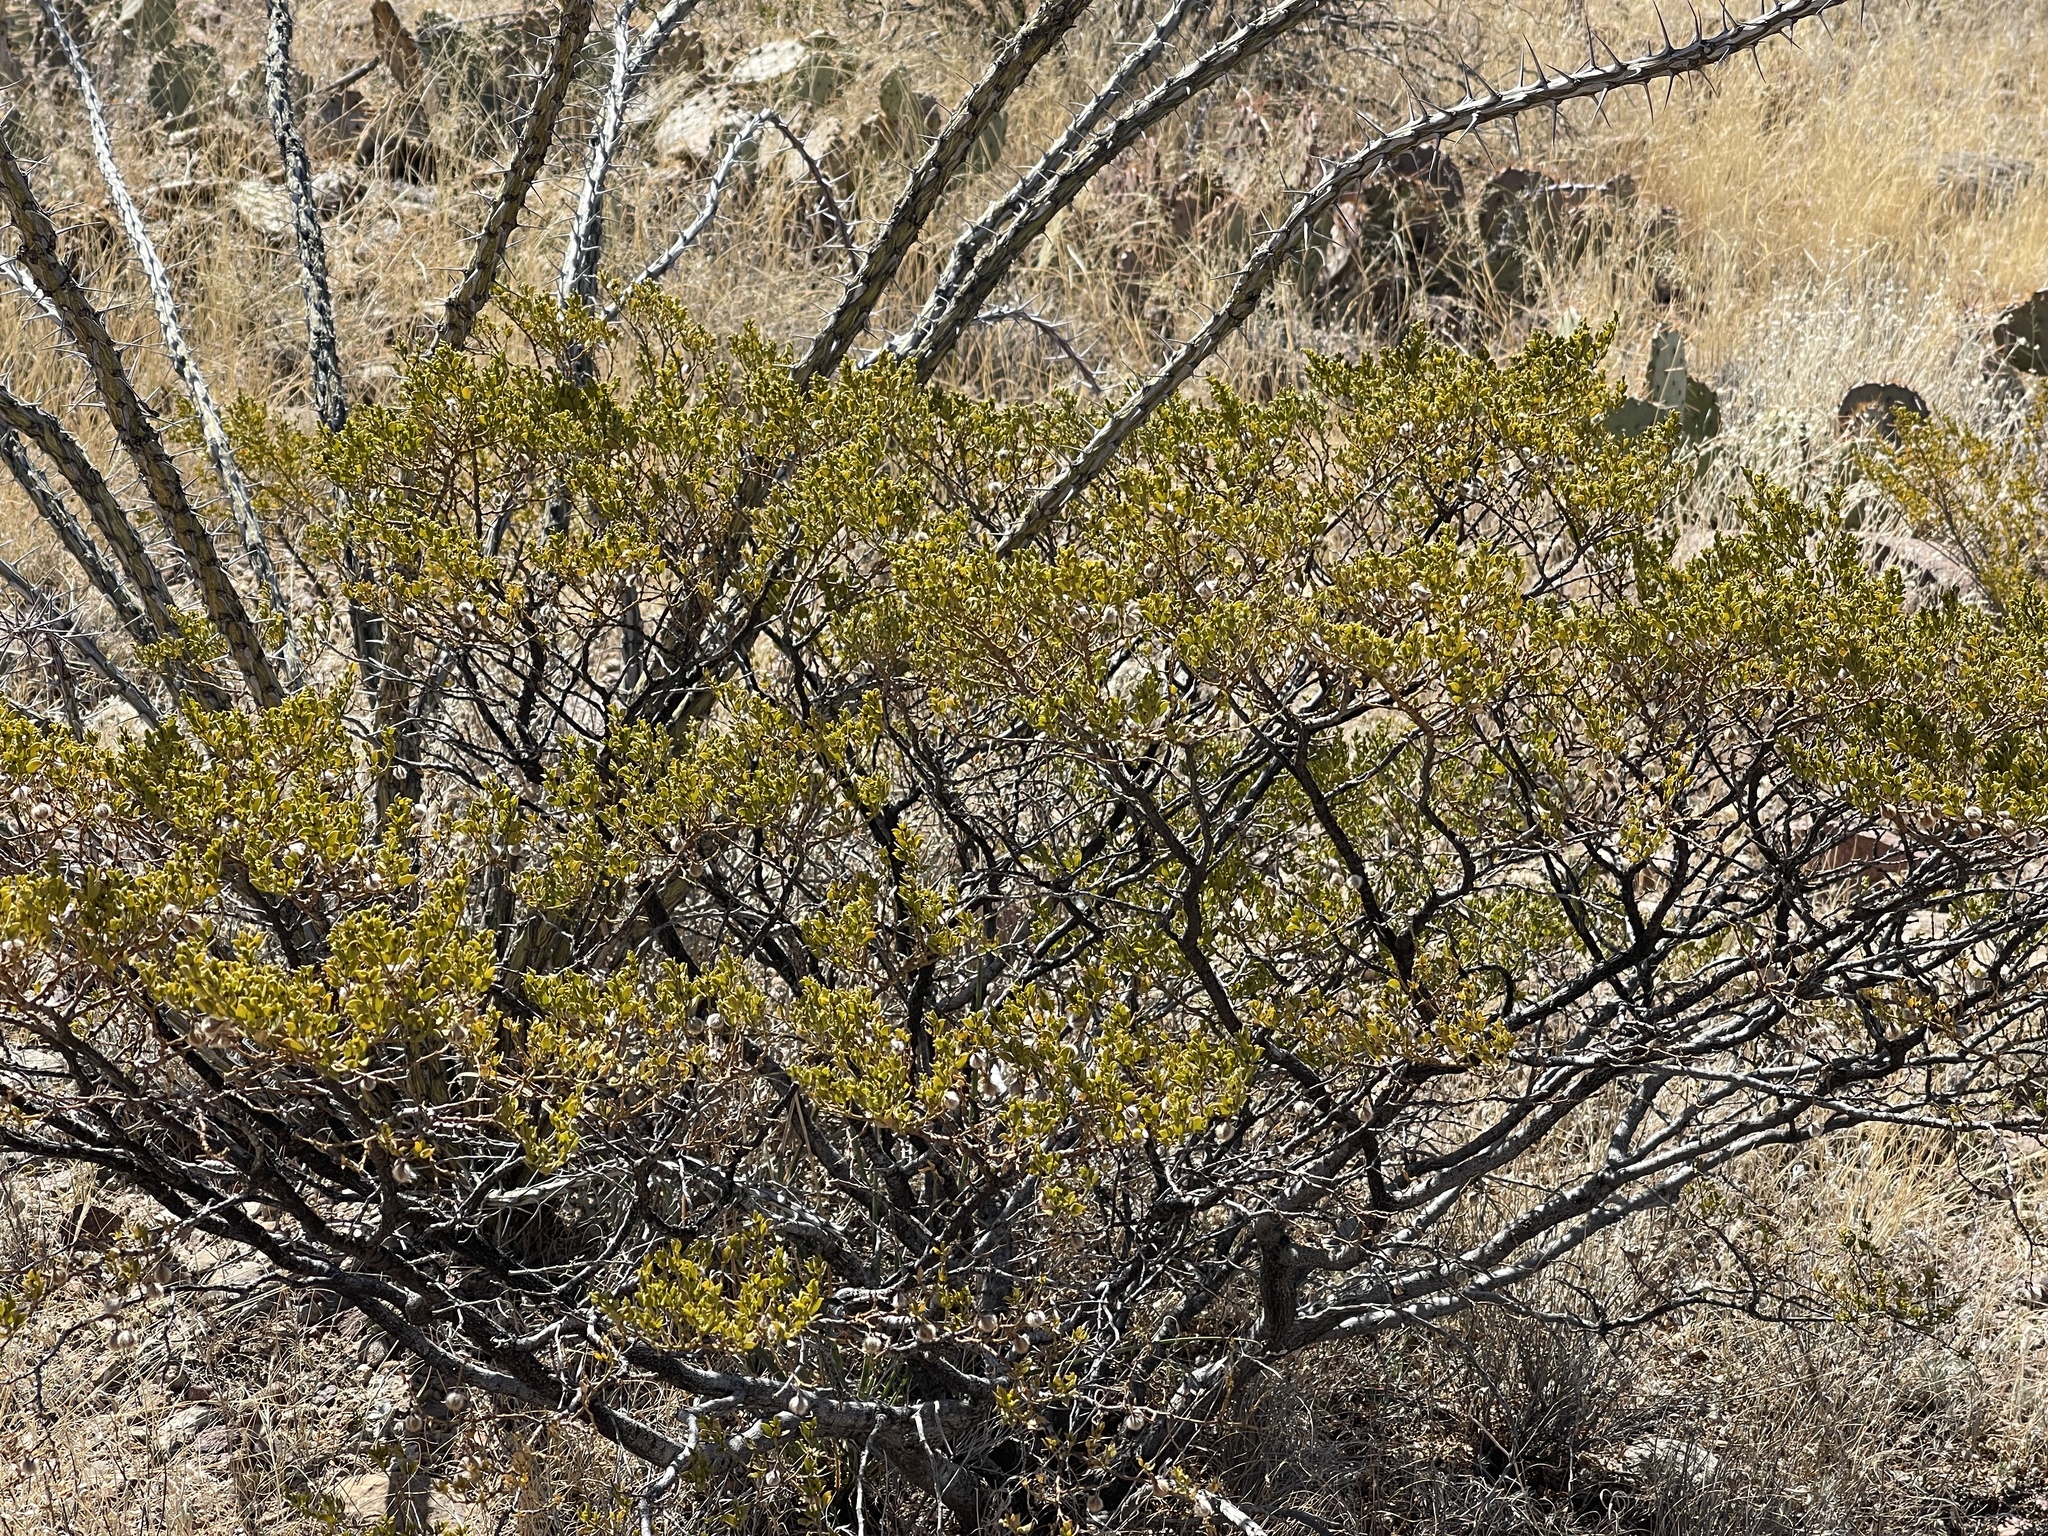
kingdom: Plantae
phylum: Tracheophyta
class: Magnoliopsida
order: Zygophyllales
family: Zygophyllaceae
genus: Larrea
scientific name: Larrea tridentata
